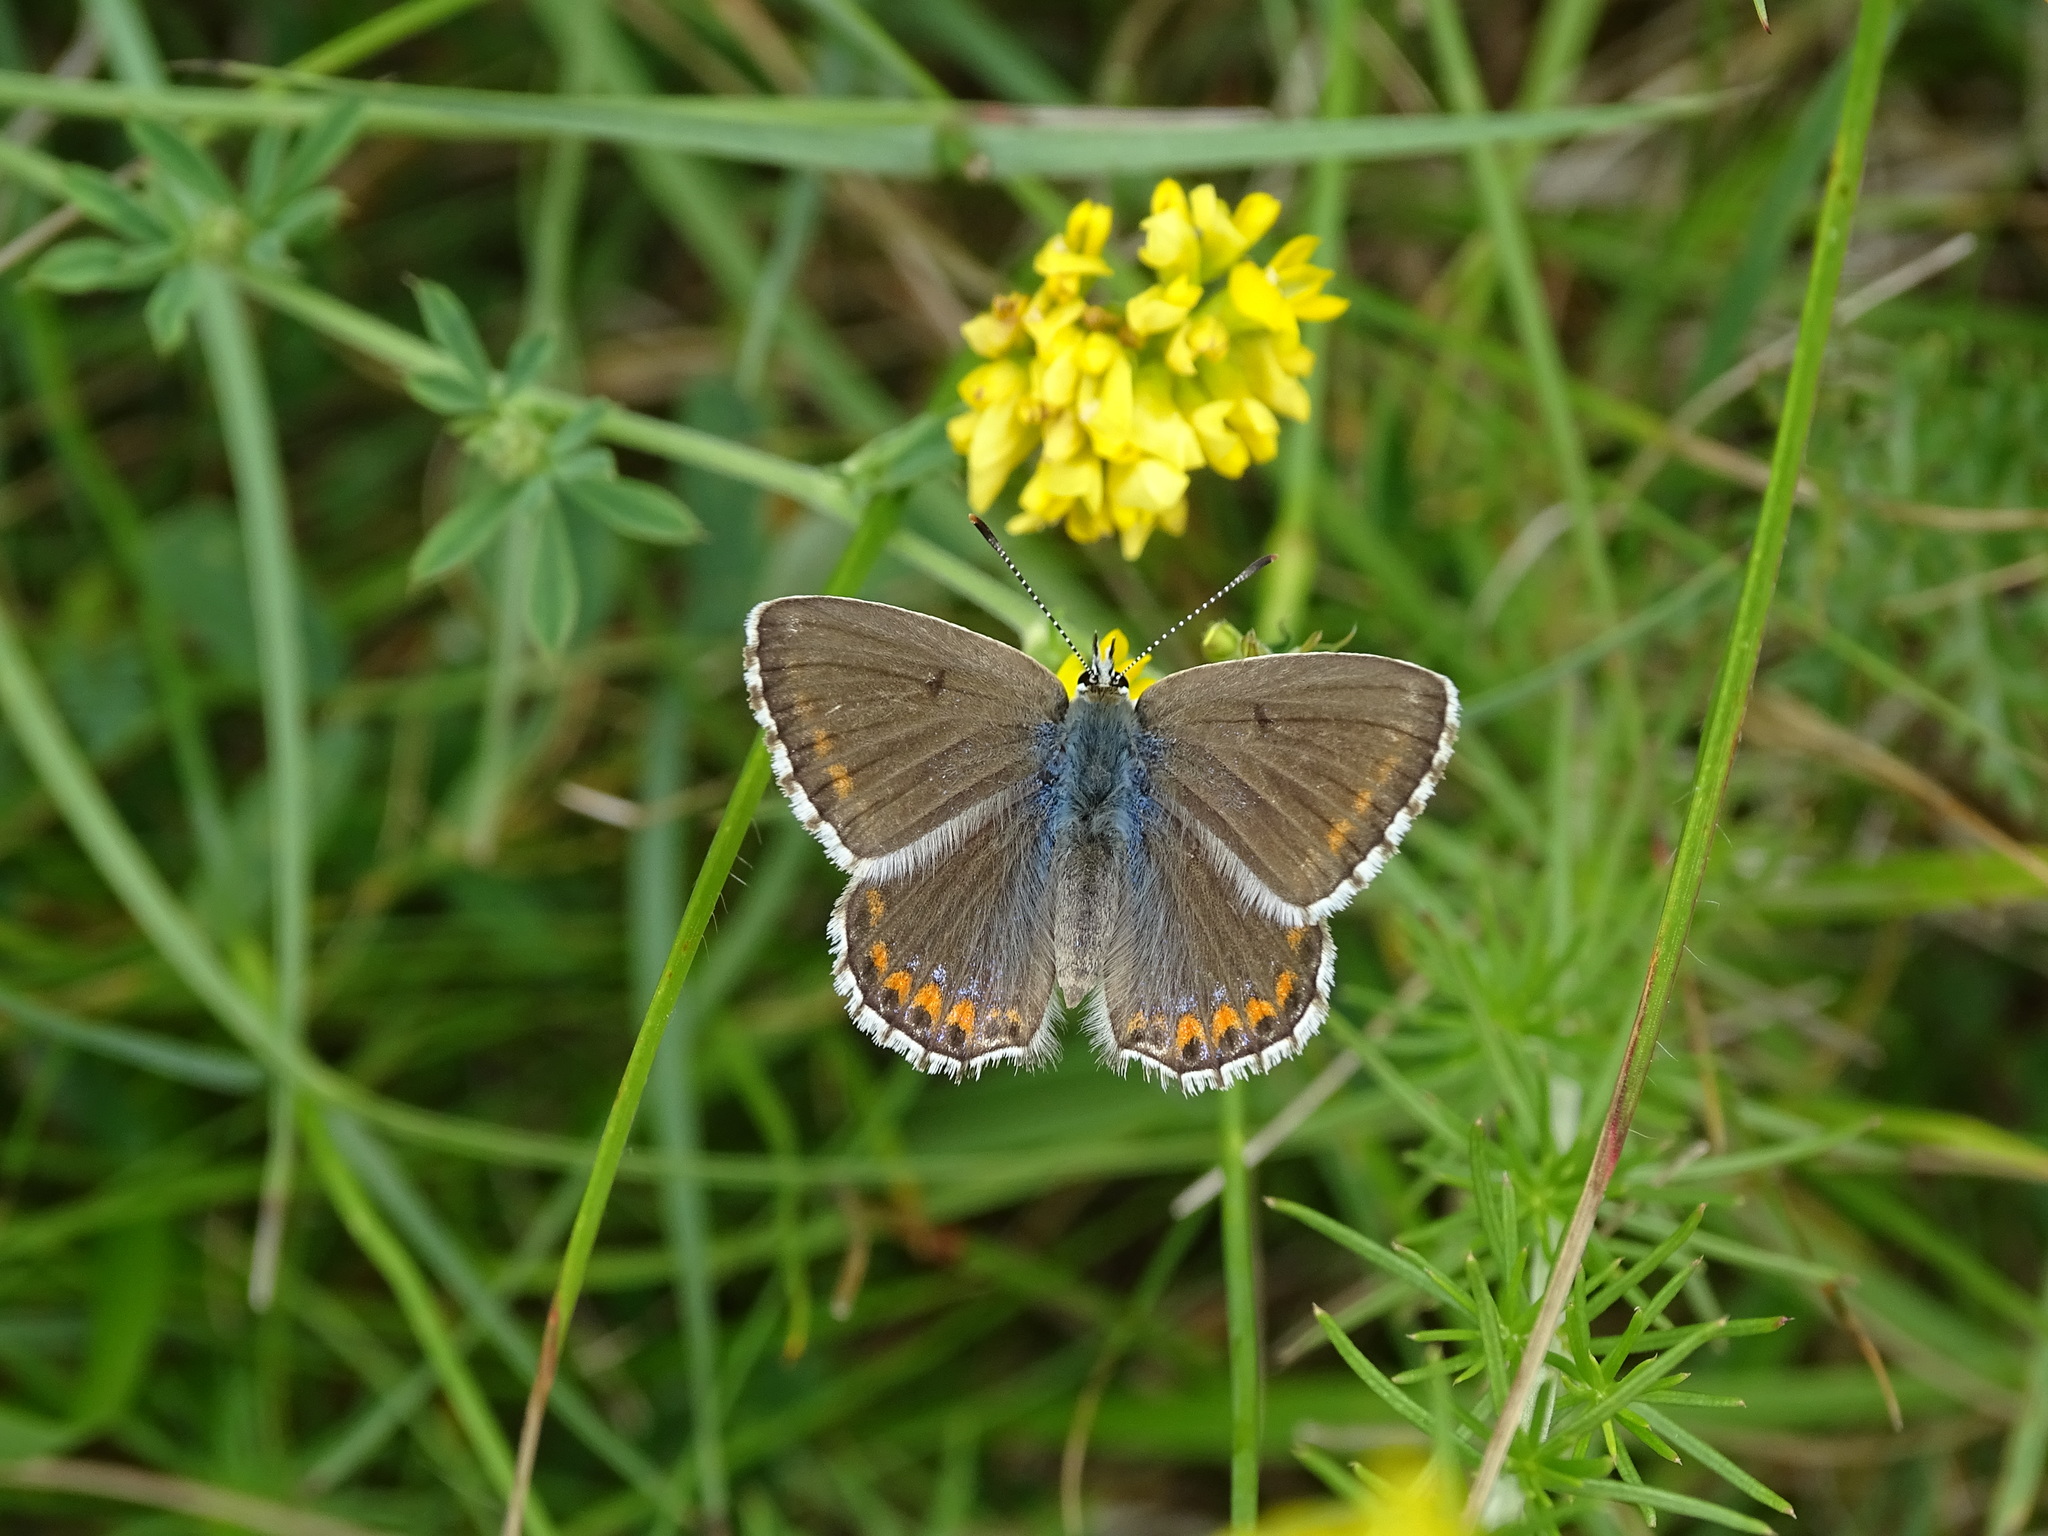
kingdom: Animalia
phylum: Arthropoda
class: Insecta
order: Lepidoptera
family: Lycaenidae
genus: Lysandra
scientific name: Lysandra bellargus
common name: Adonis blue
